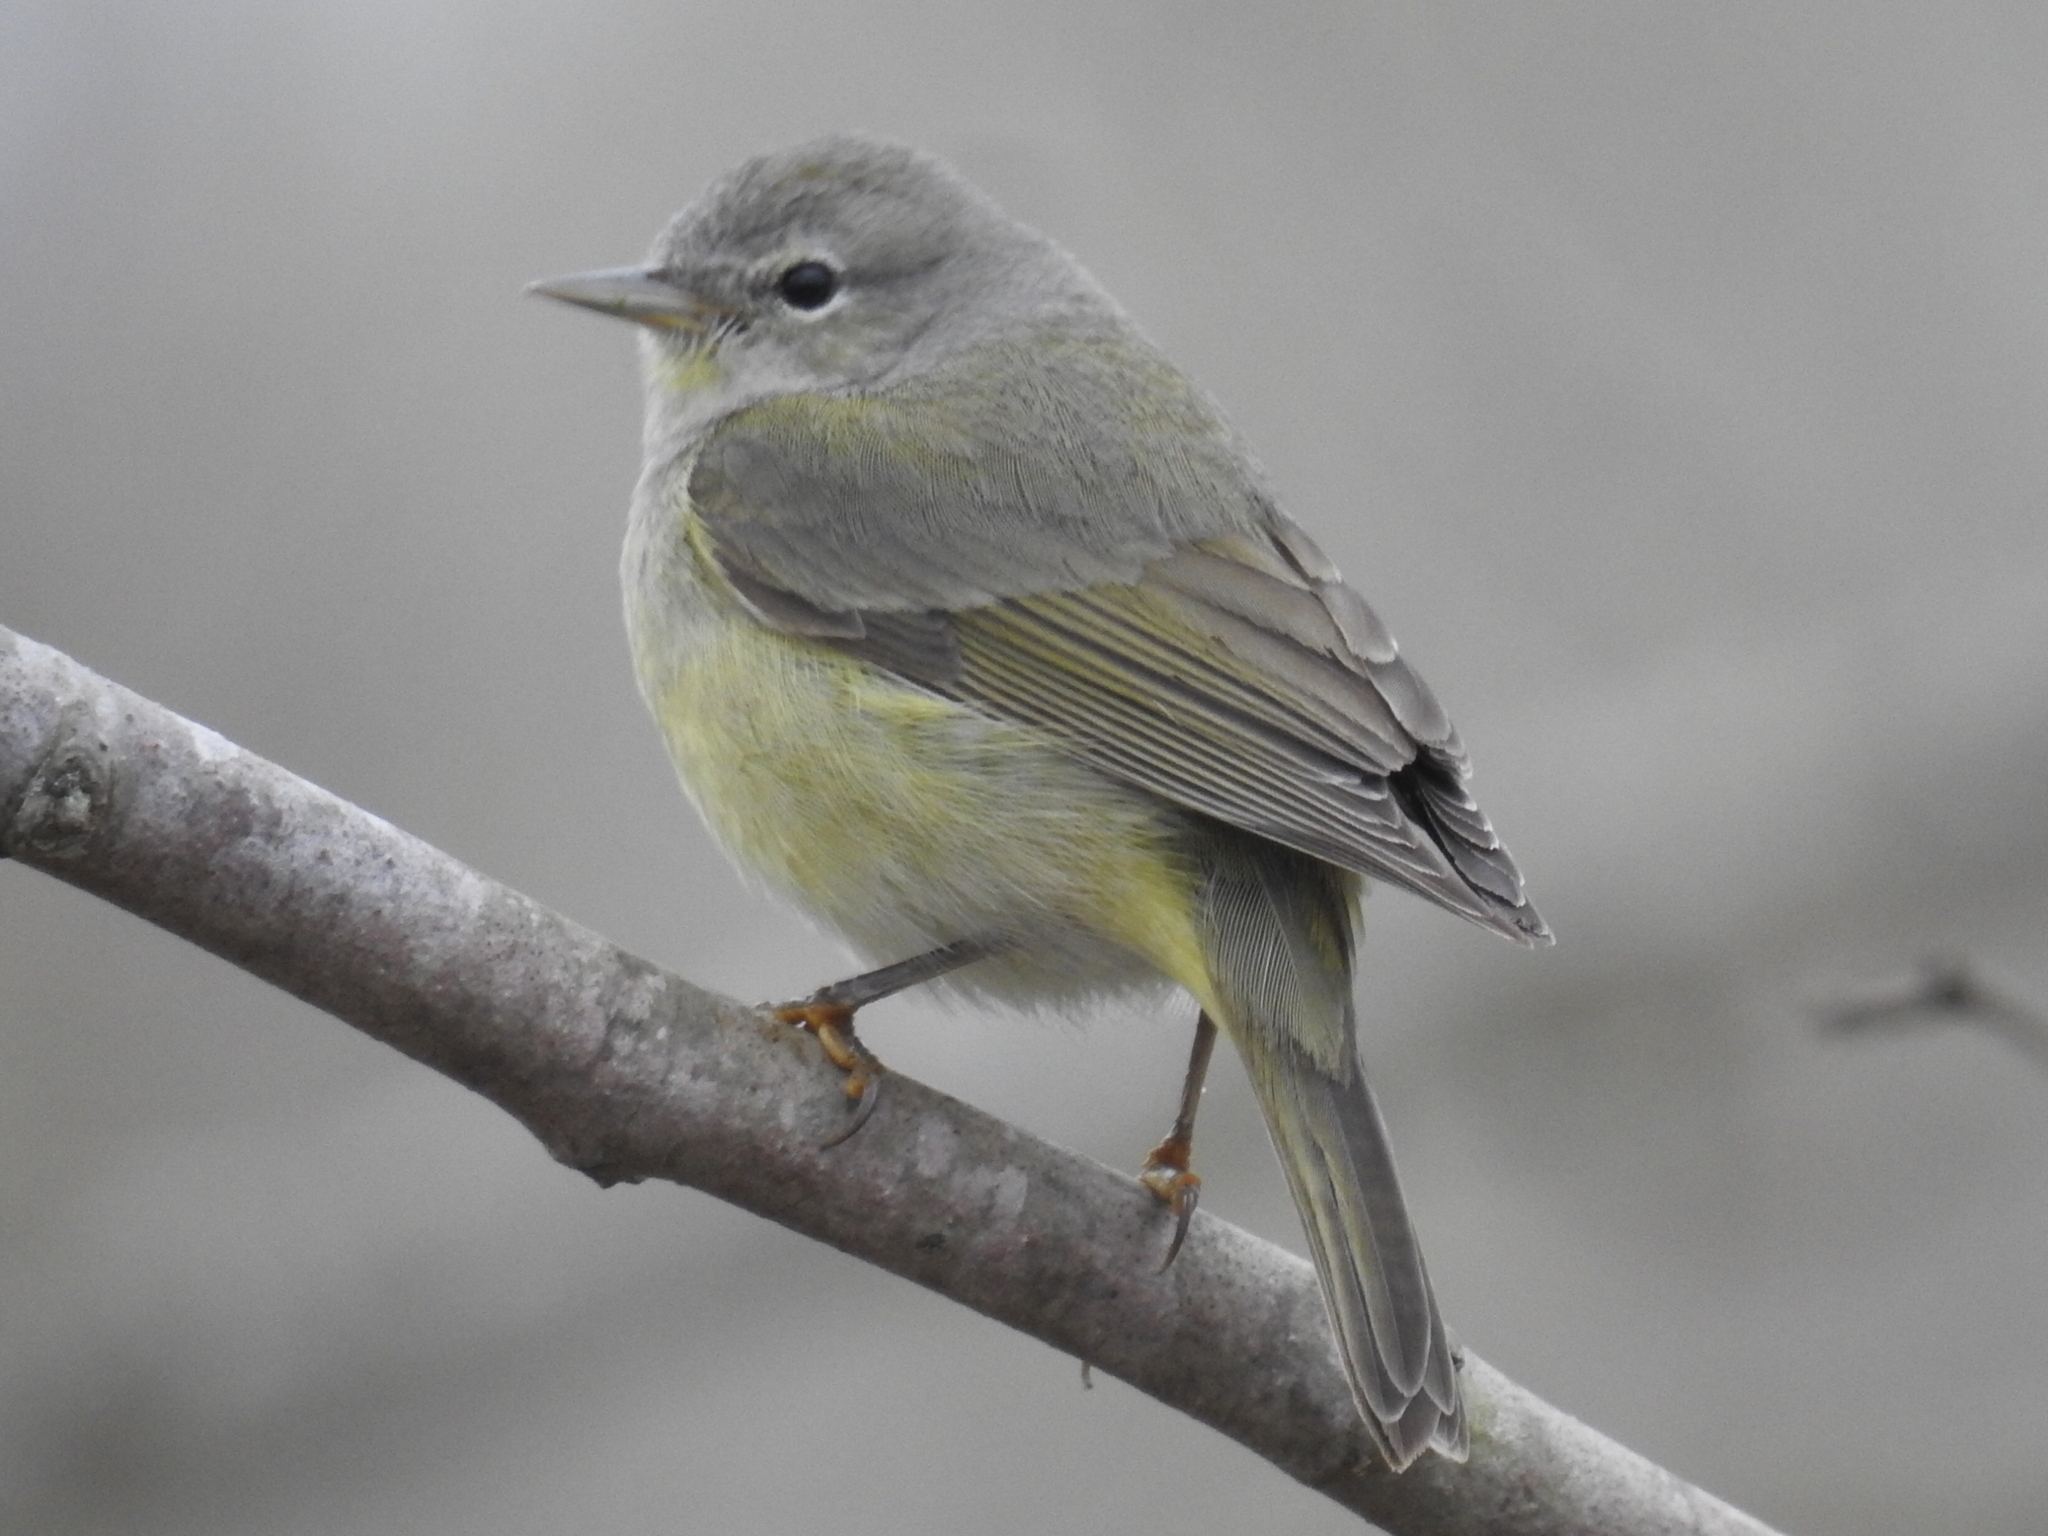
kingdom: Animalia
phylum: Chordata
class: Aves
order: Passeriformes
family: Parulidae
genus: Leiothlypis
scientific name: Leiothlypis celata
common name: Orange-crowned warbler
